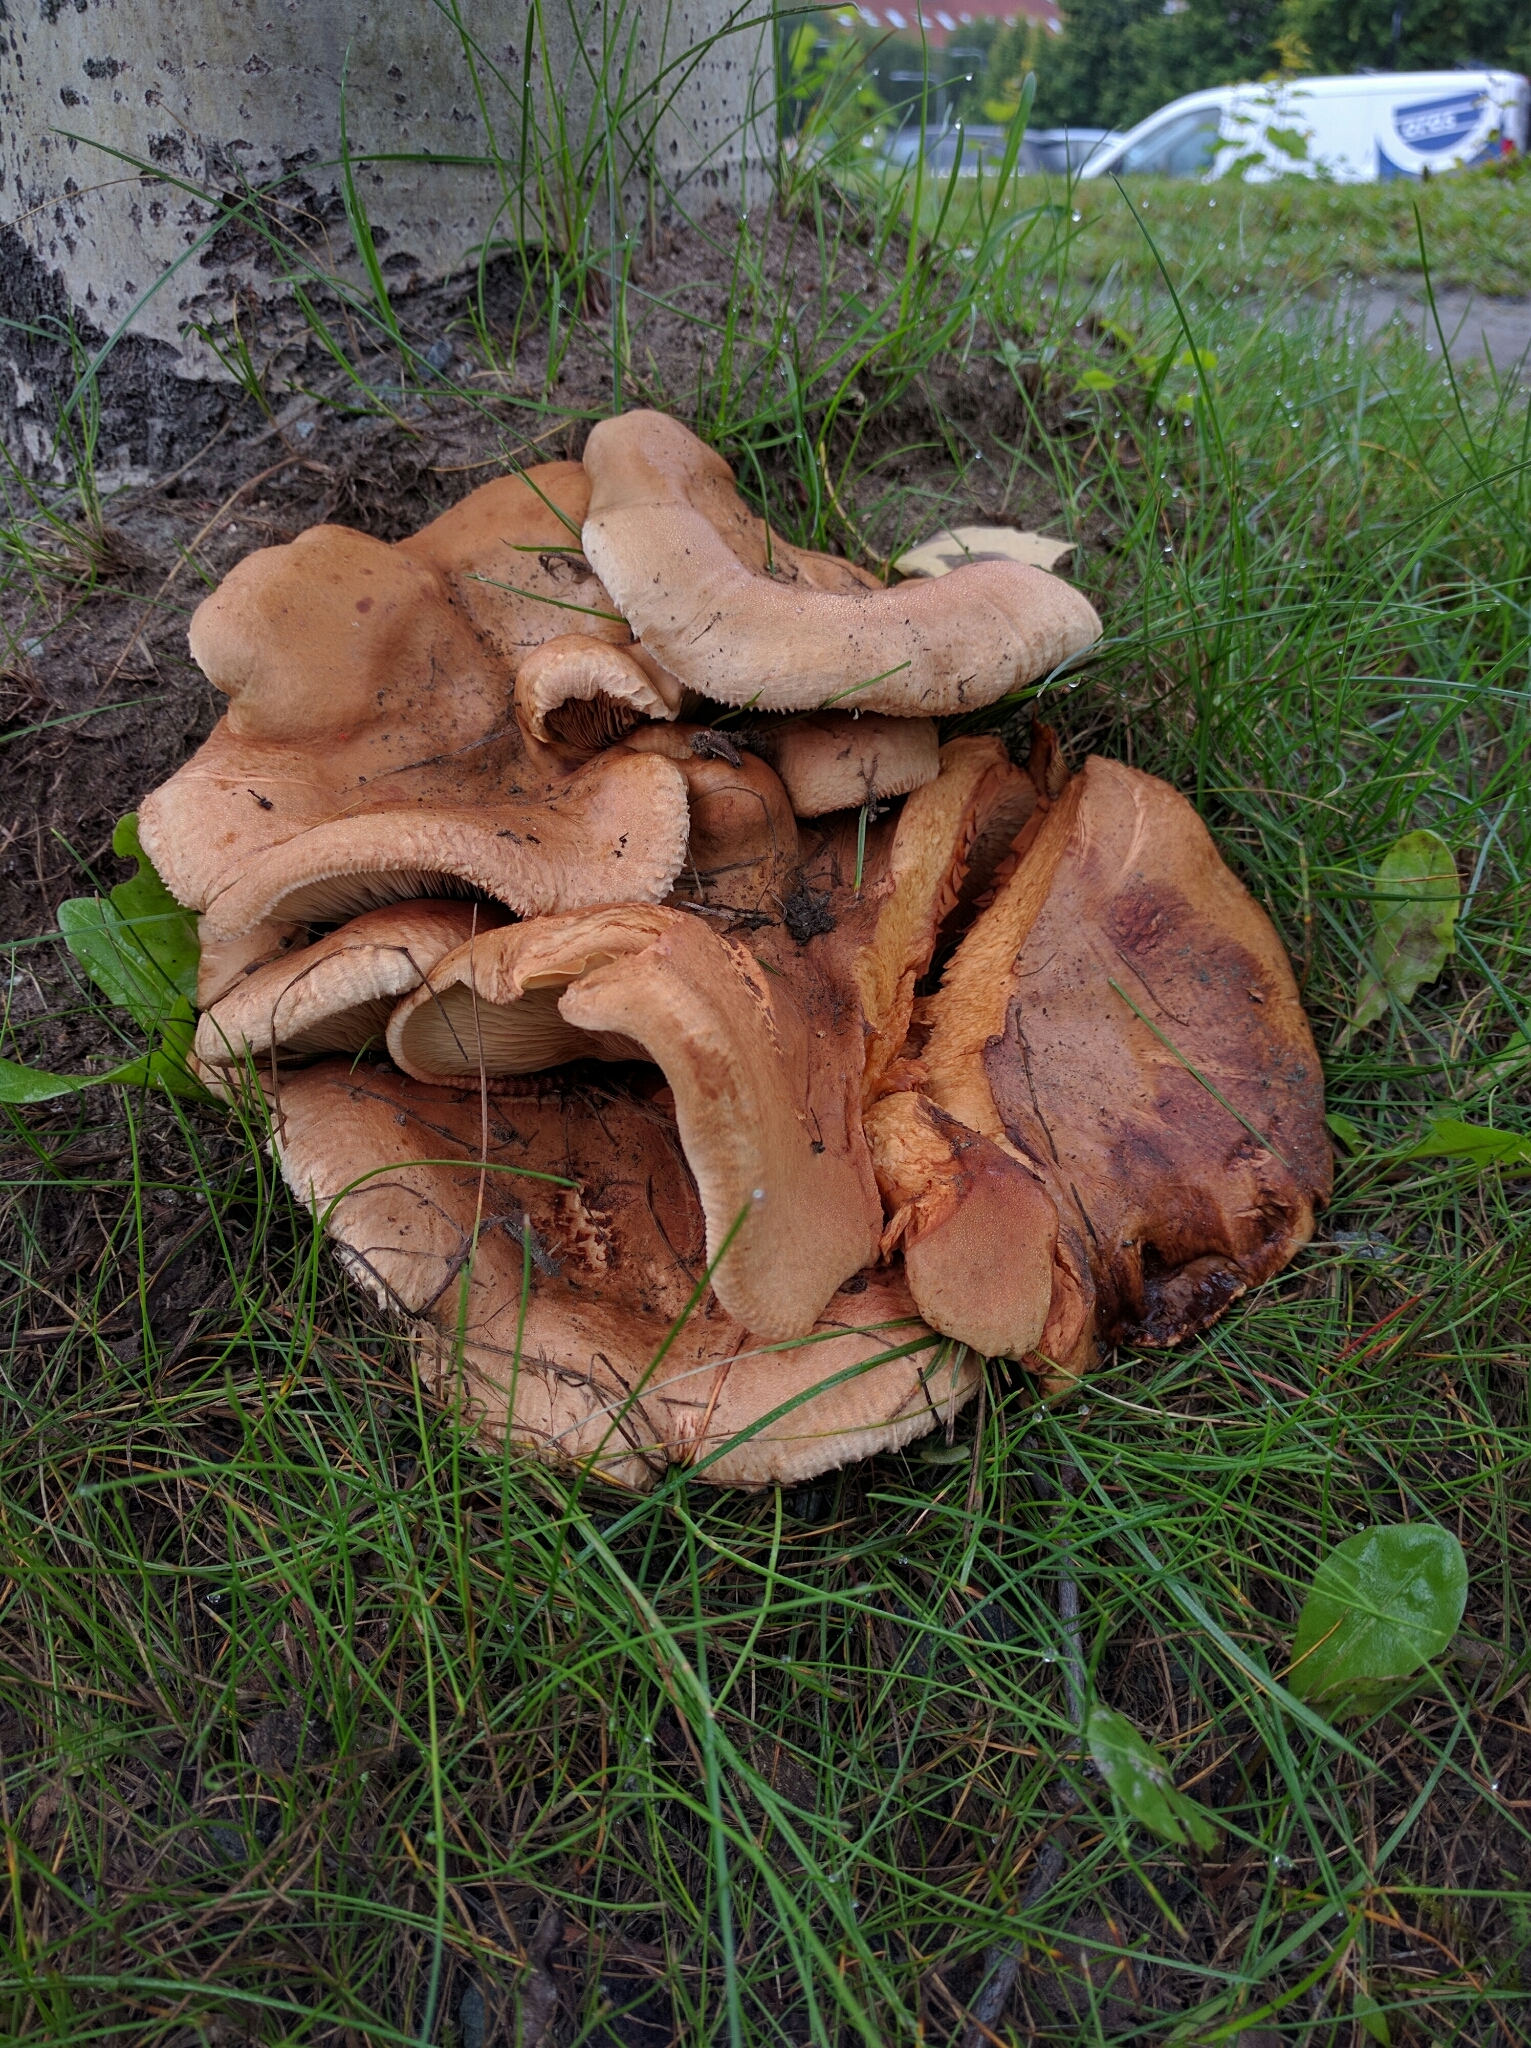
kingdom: Fungi
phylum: Basidiomycota
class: Agaricomycetes
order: Boletales
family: Paxillaceae
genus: Paxillus
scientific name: Paxillus involutus
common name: Brown roll rim
